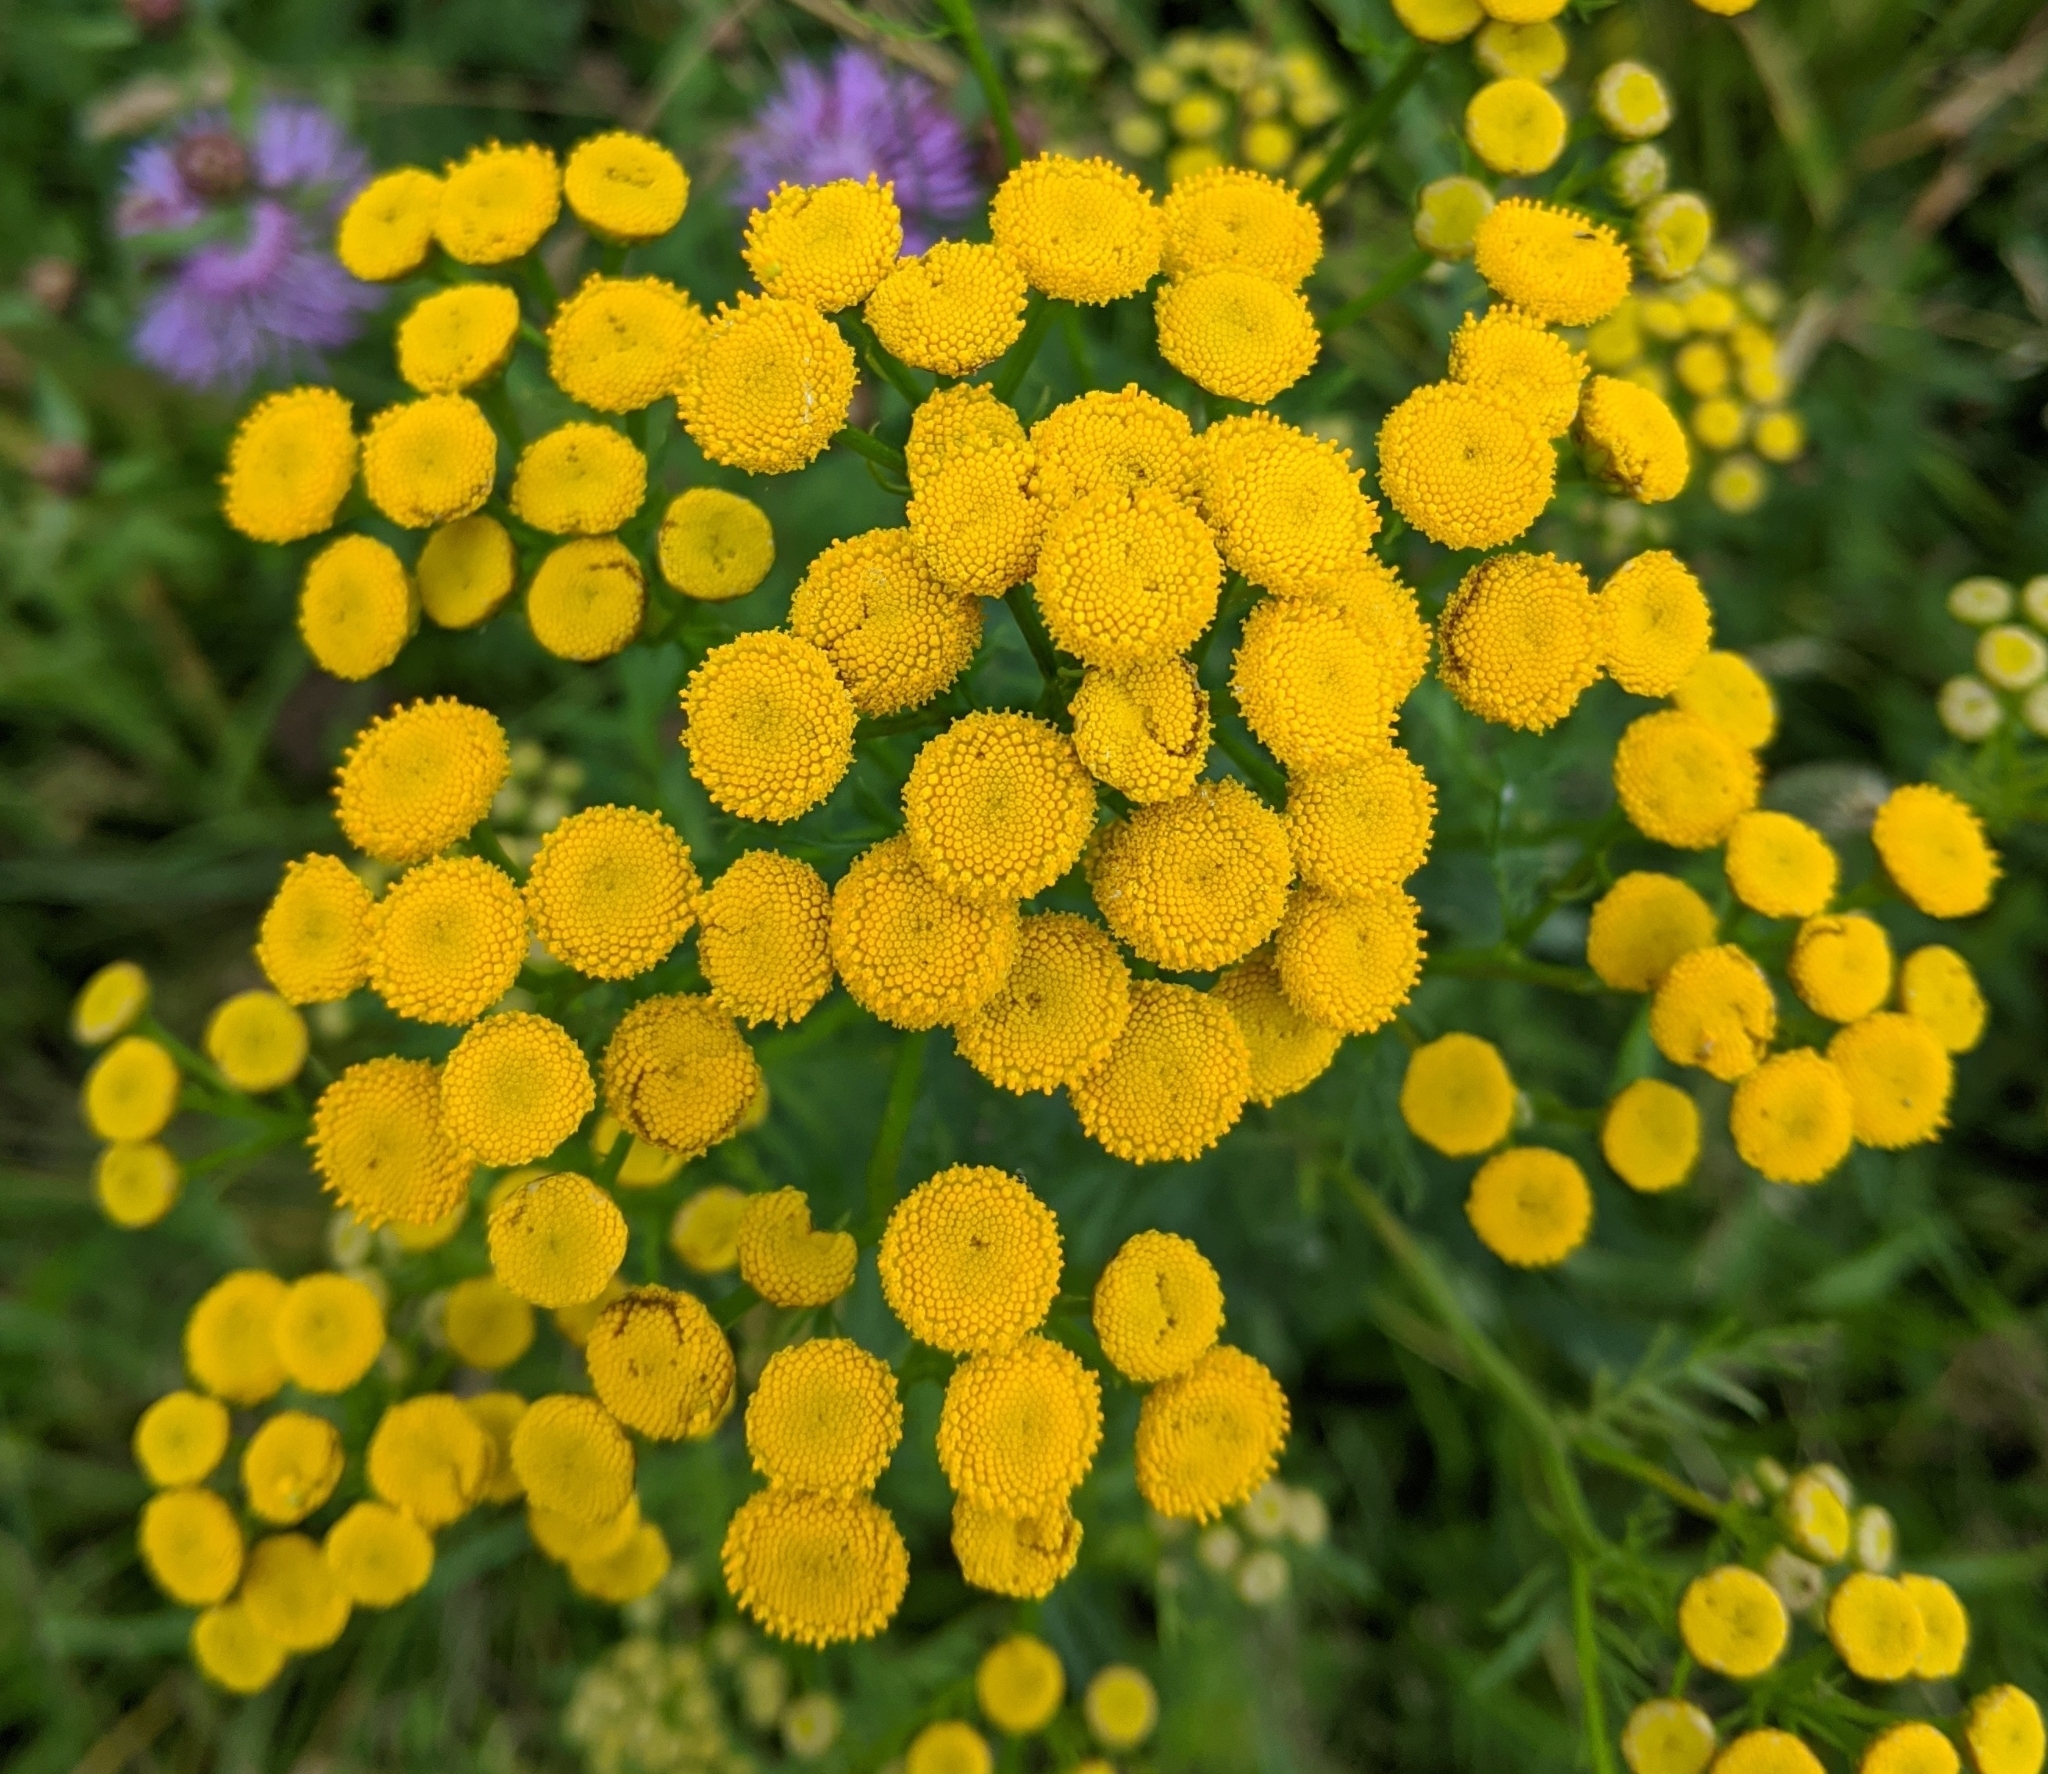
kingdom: Plantae
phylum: Tracheophyta
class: Magnoliopsida
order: Asterales
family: Asteraceae
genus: Tanacetum
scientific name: Tanacetum vulgare
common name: Common tansy
